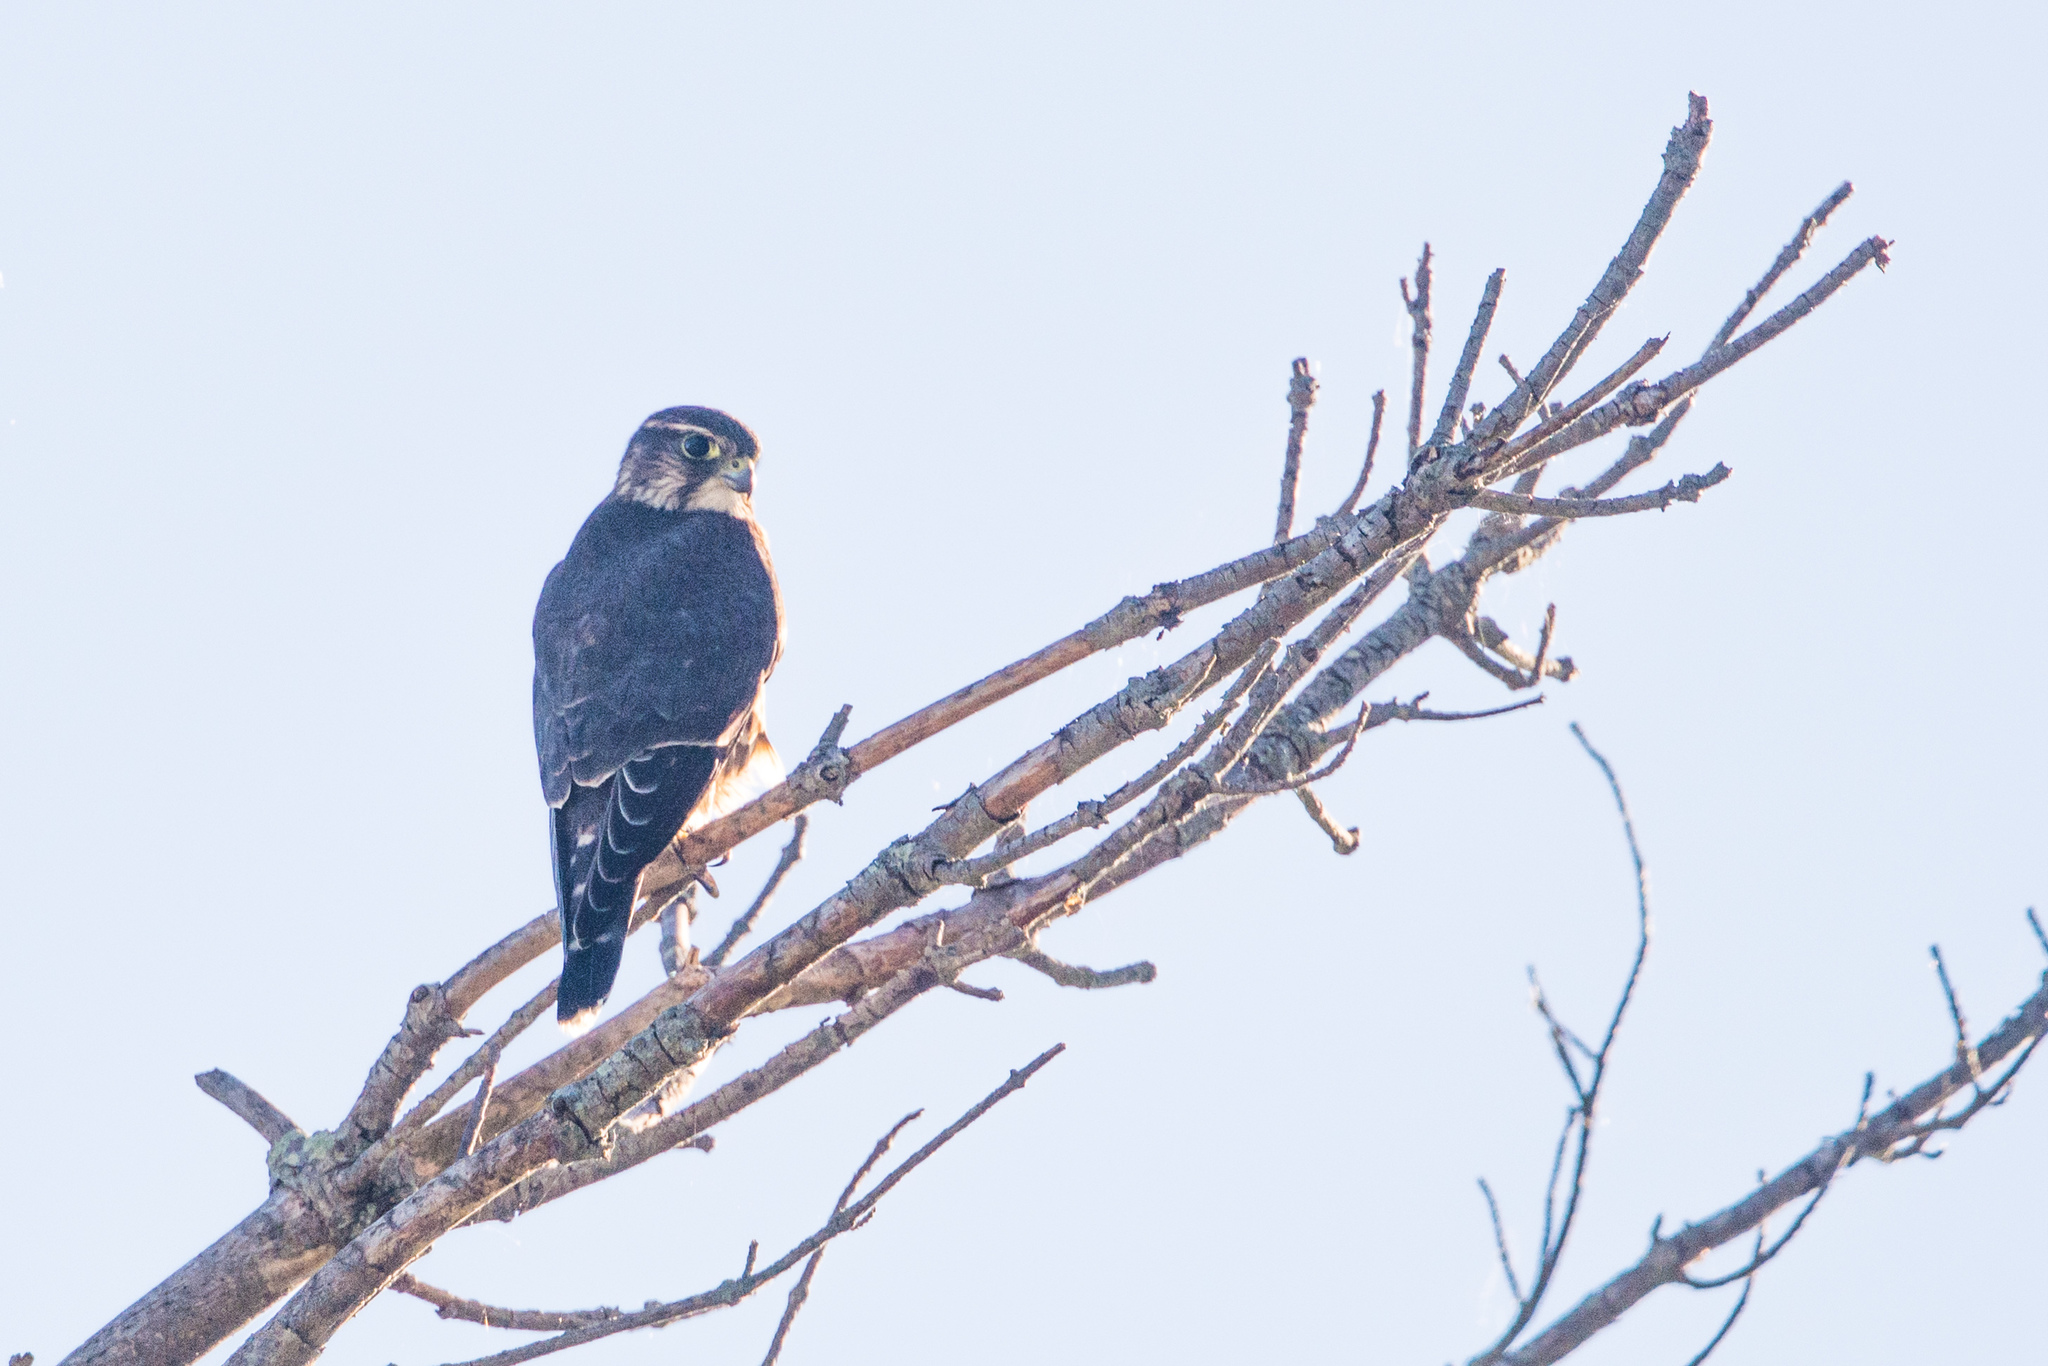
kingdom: Animalia
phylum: Chordata
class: Aves
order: Falconiformes
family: Falconidae
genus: Falco
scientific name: Falco columbarius
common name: Merlin
